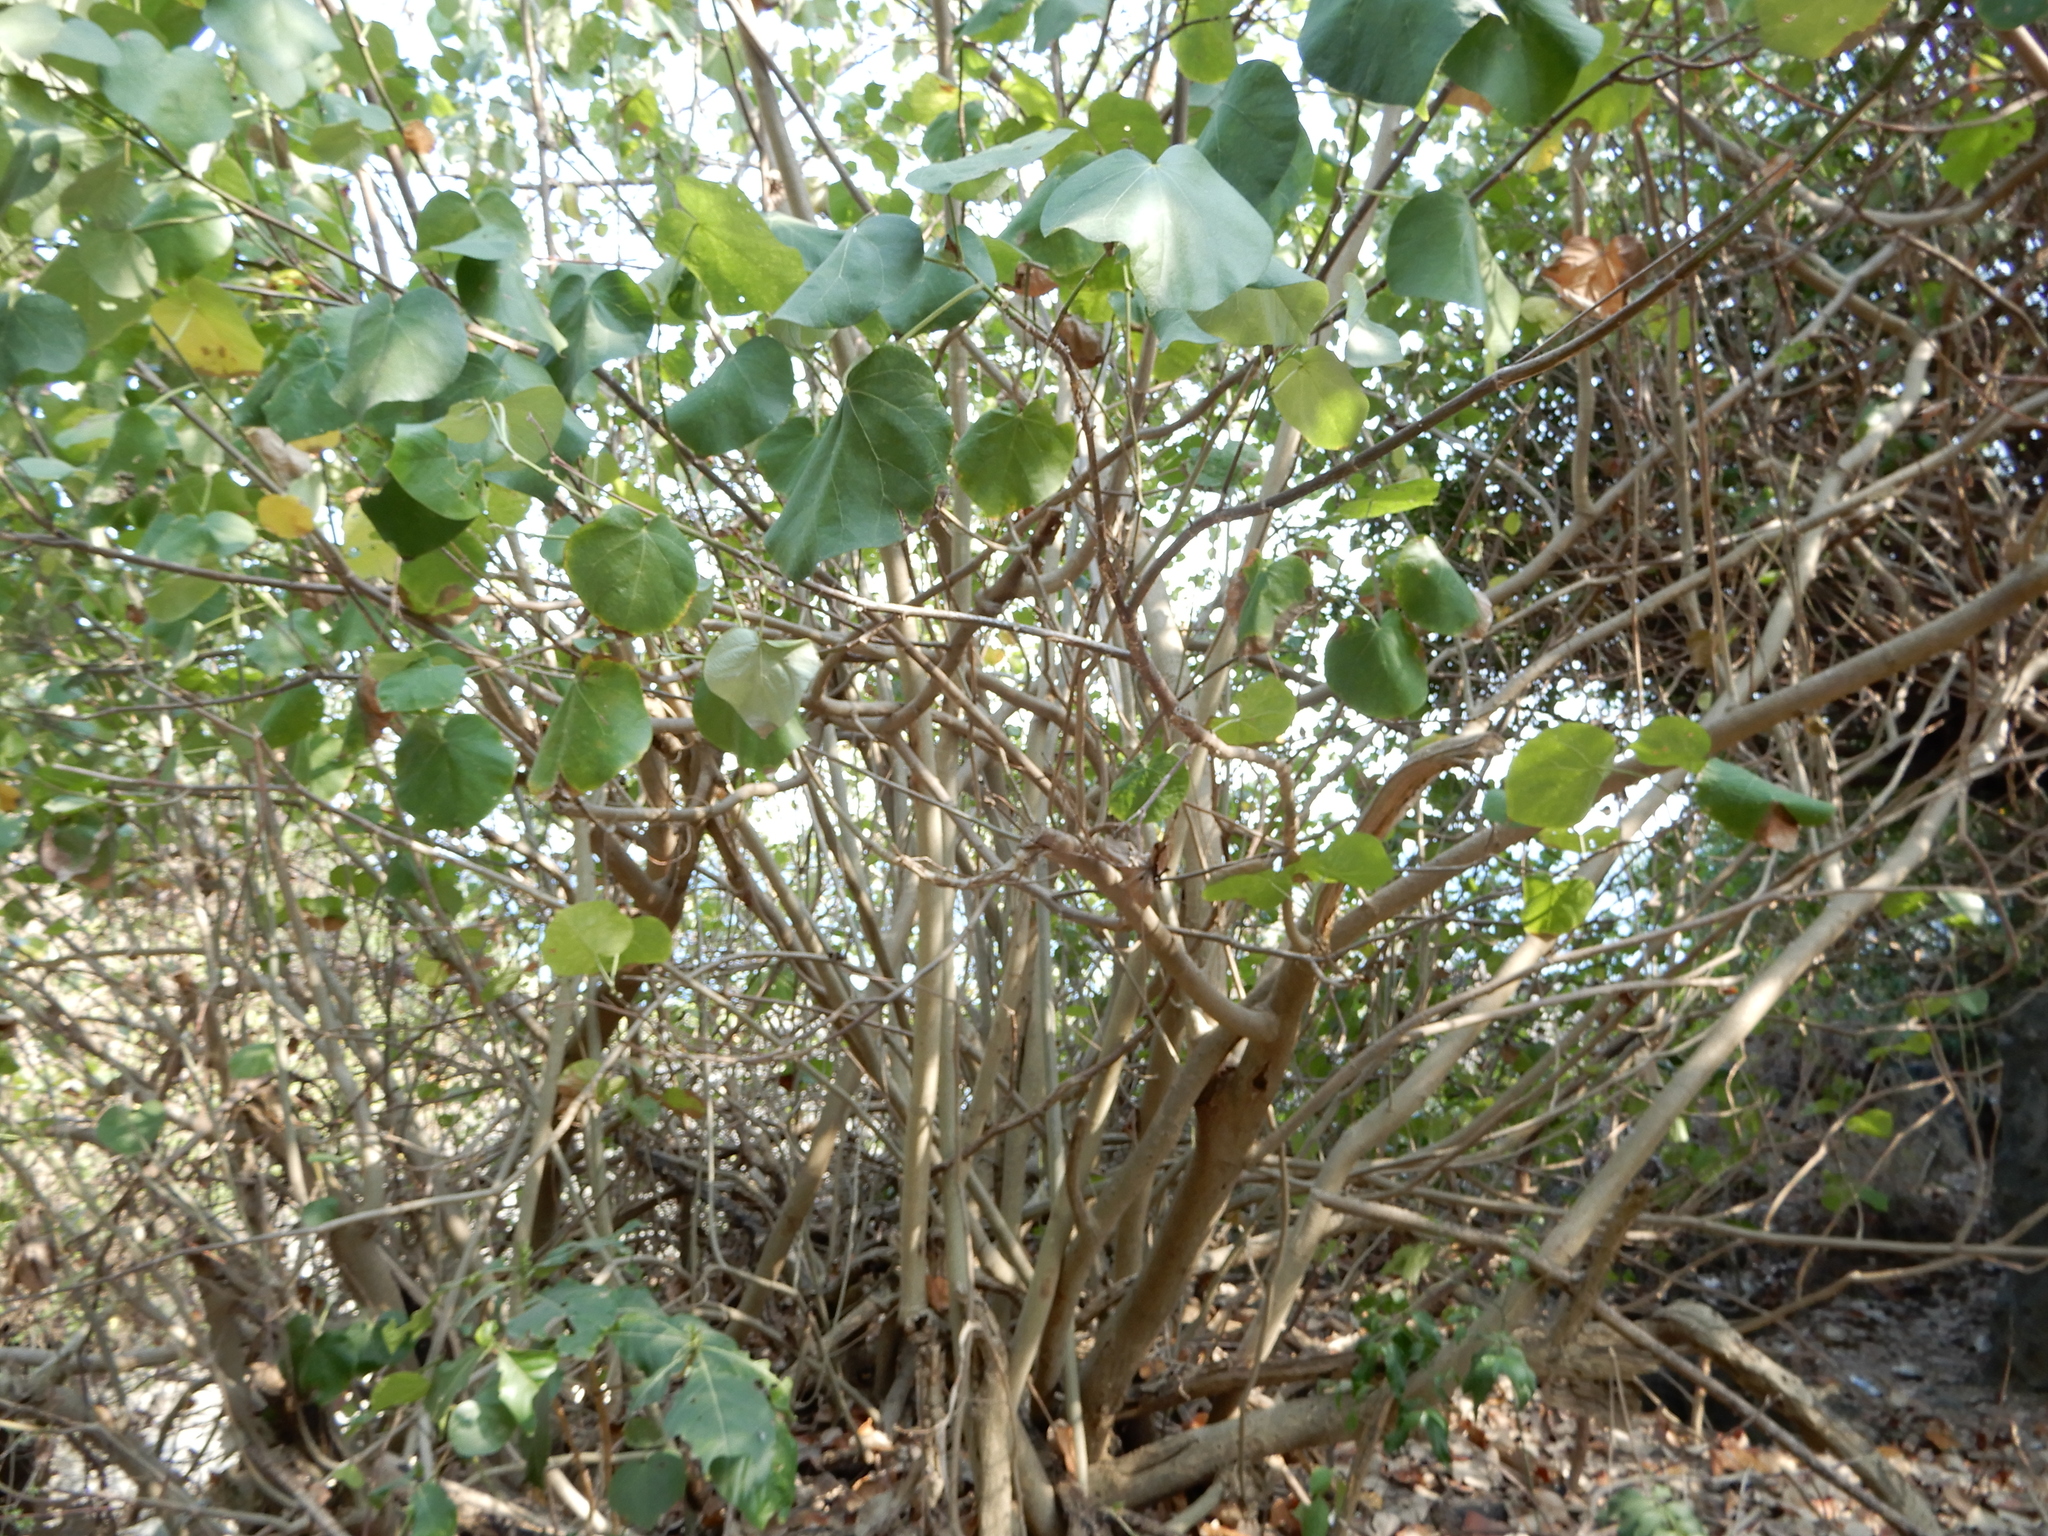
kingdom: Plantae
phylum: Tracheophyta
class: Magnoliopsida
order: Malvales
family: Malvaceae
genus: Talipariti
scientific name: Talipariti tiliaceum
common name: Sea hibiscus
